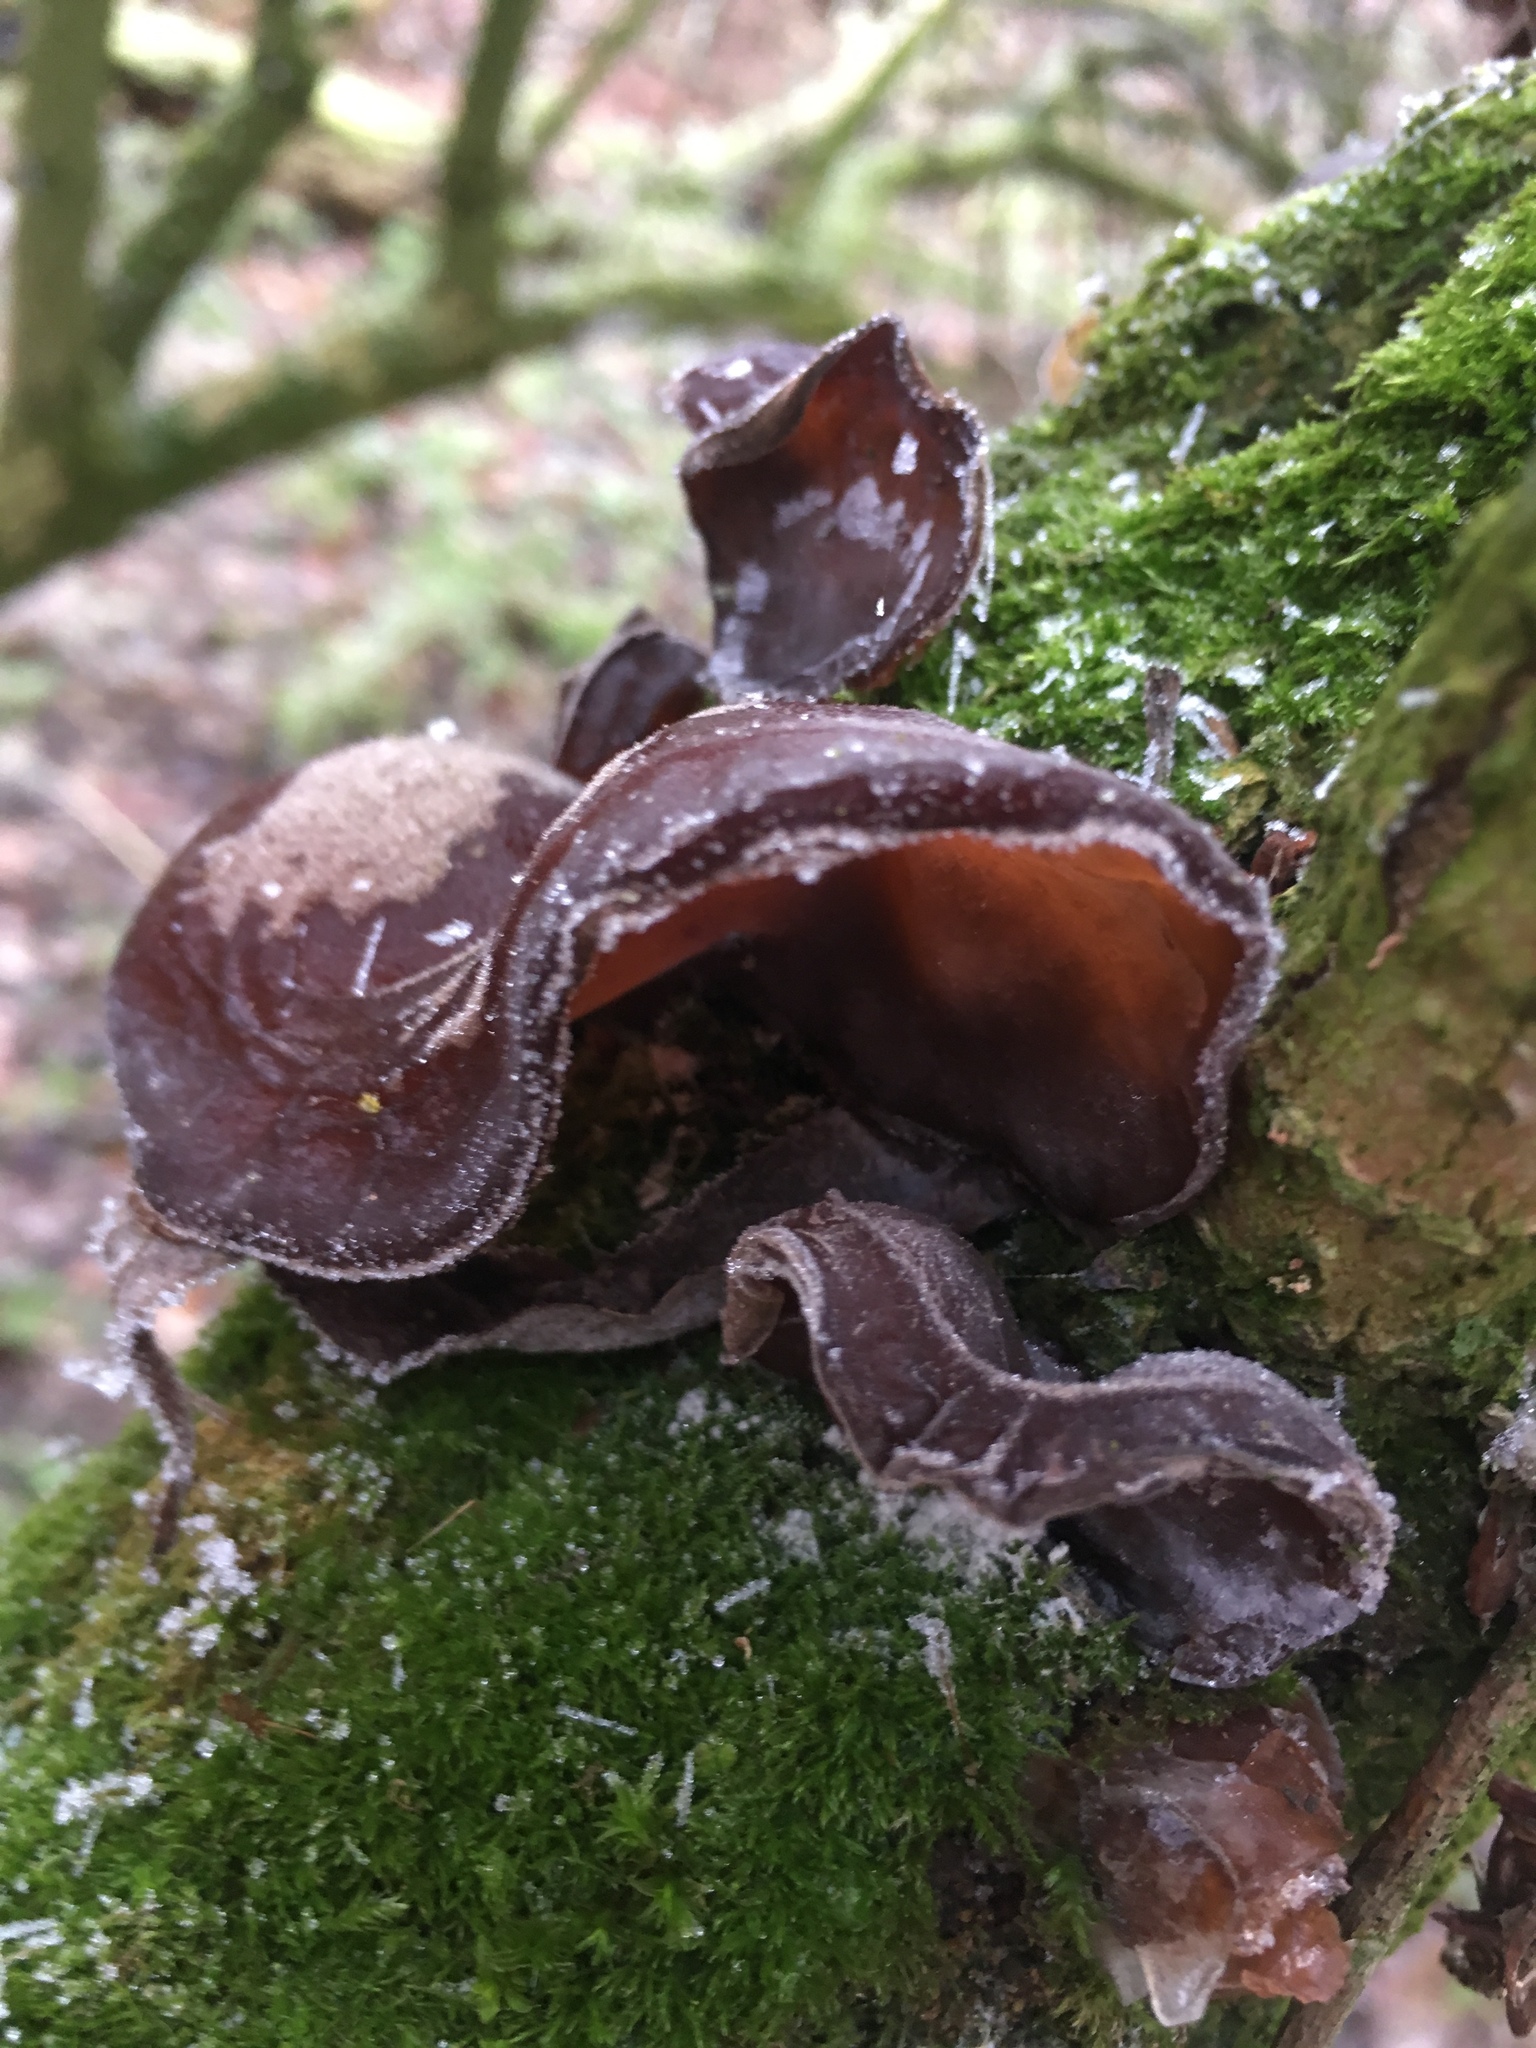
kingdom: Fungi
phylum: Basidiomycota
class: Agaricomycetes
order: Auriculariales
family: Auriculariaceae
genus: Auricularia
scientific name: Auricularia auricula-judae
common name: Jelly ear
